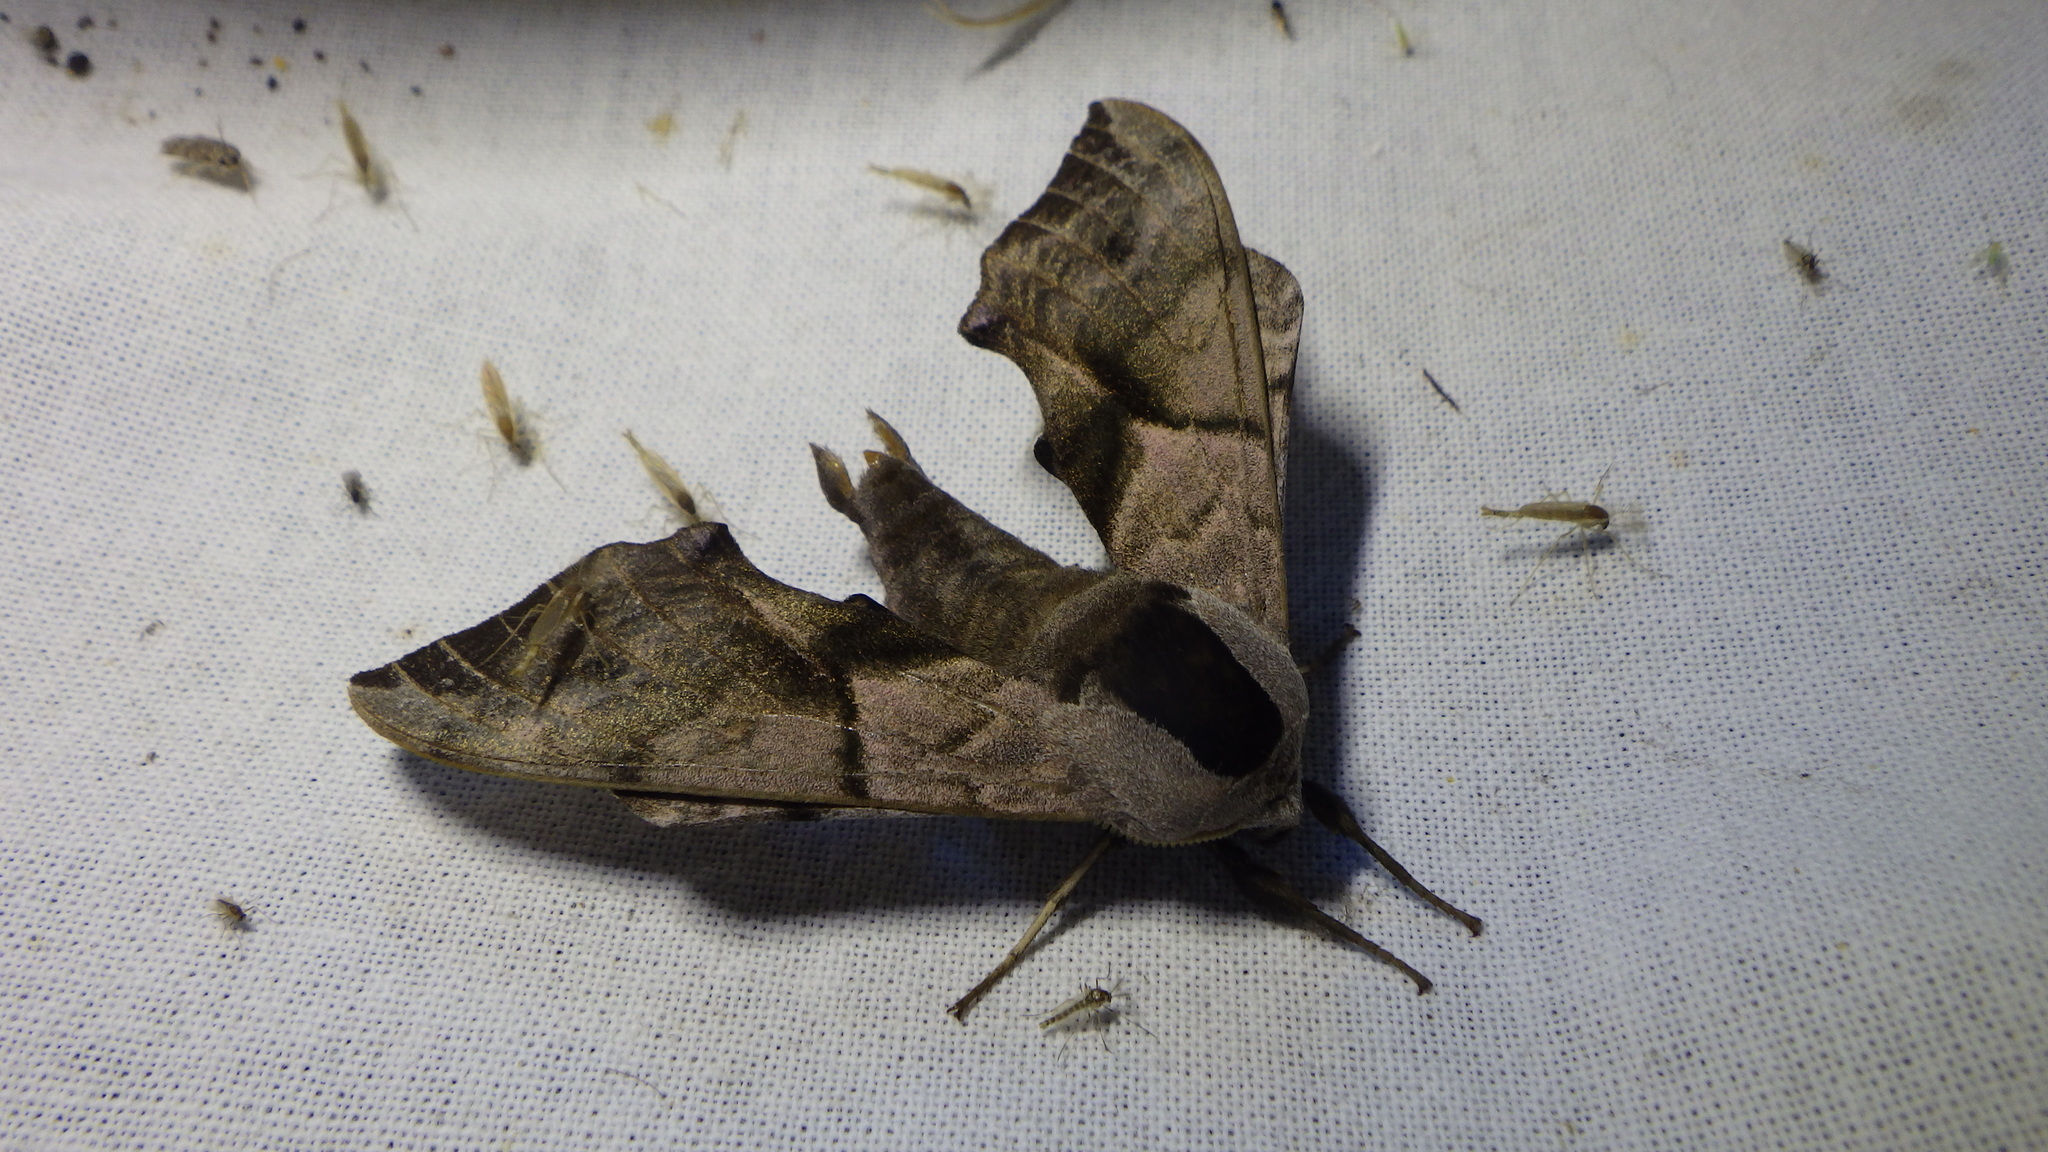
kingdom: Animalia
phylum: Arthropoda
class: Insecta
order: Lepidoptera
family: Sphingidae
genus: Smerinthus
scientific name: Smerinthus ocellata
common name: Eyed hawk-moth
